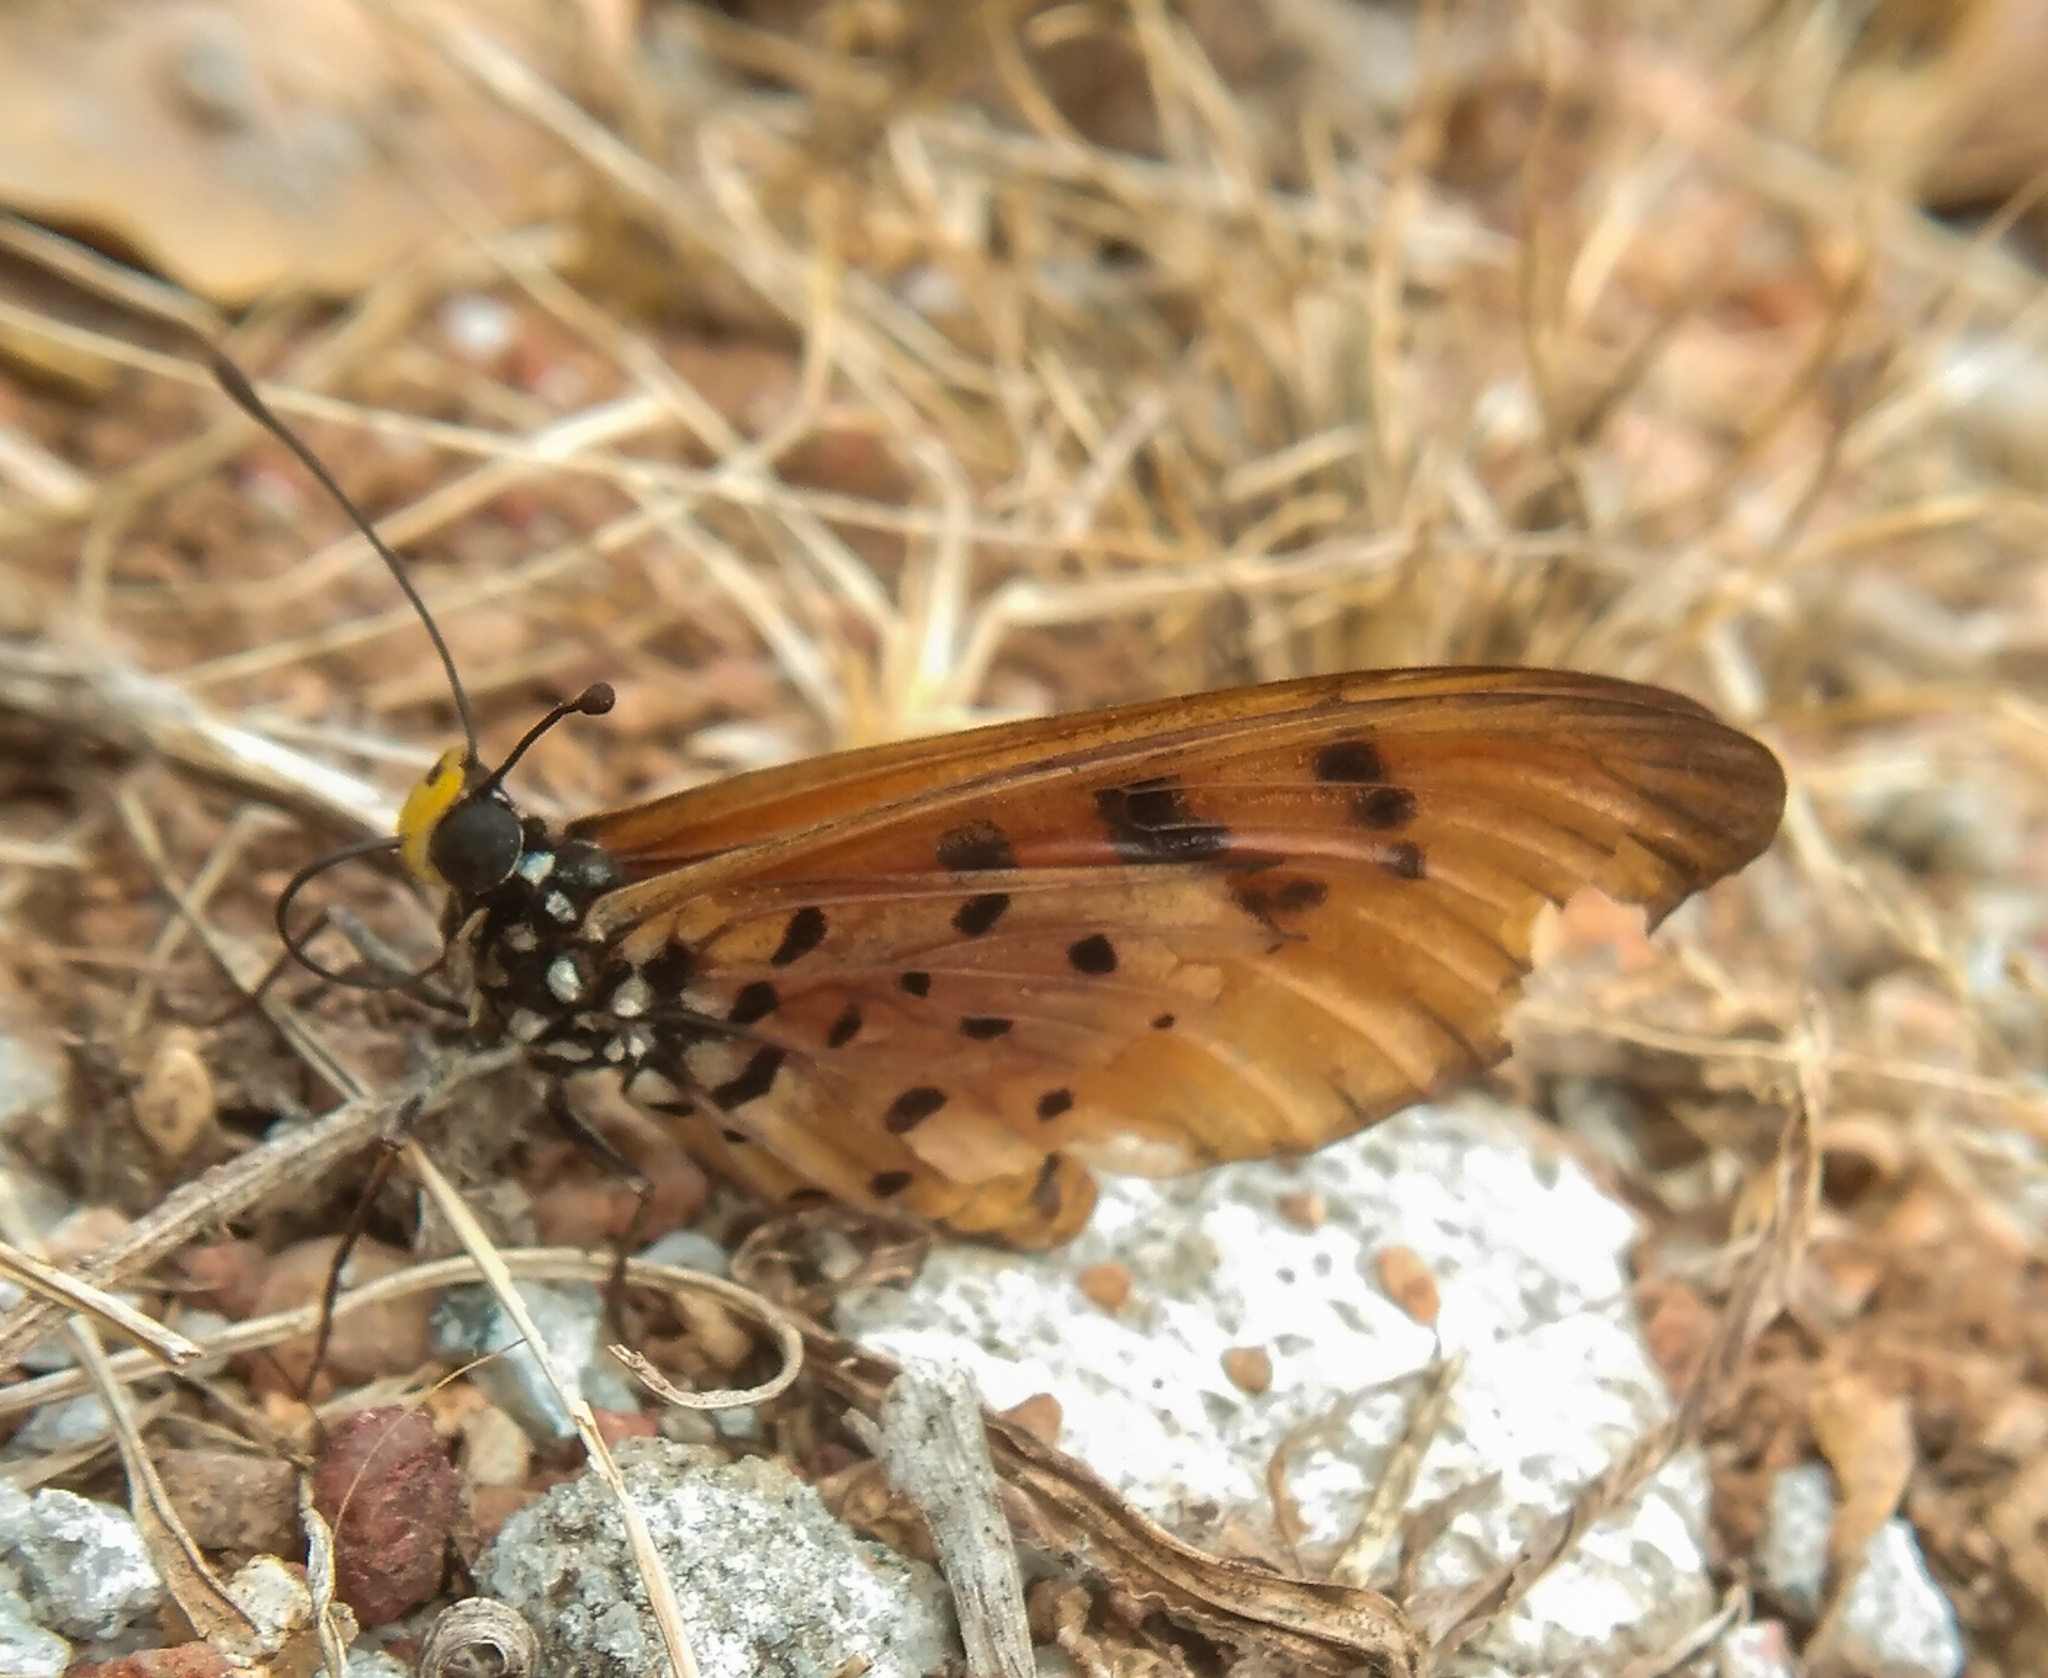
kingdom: Animalia
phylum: Arthropoda
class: Insecta
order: Lepidoptera
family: Nymphalidae
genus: Acraea
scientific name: Acraea terpsicore
